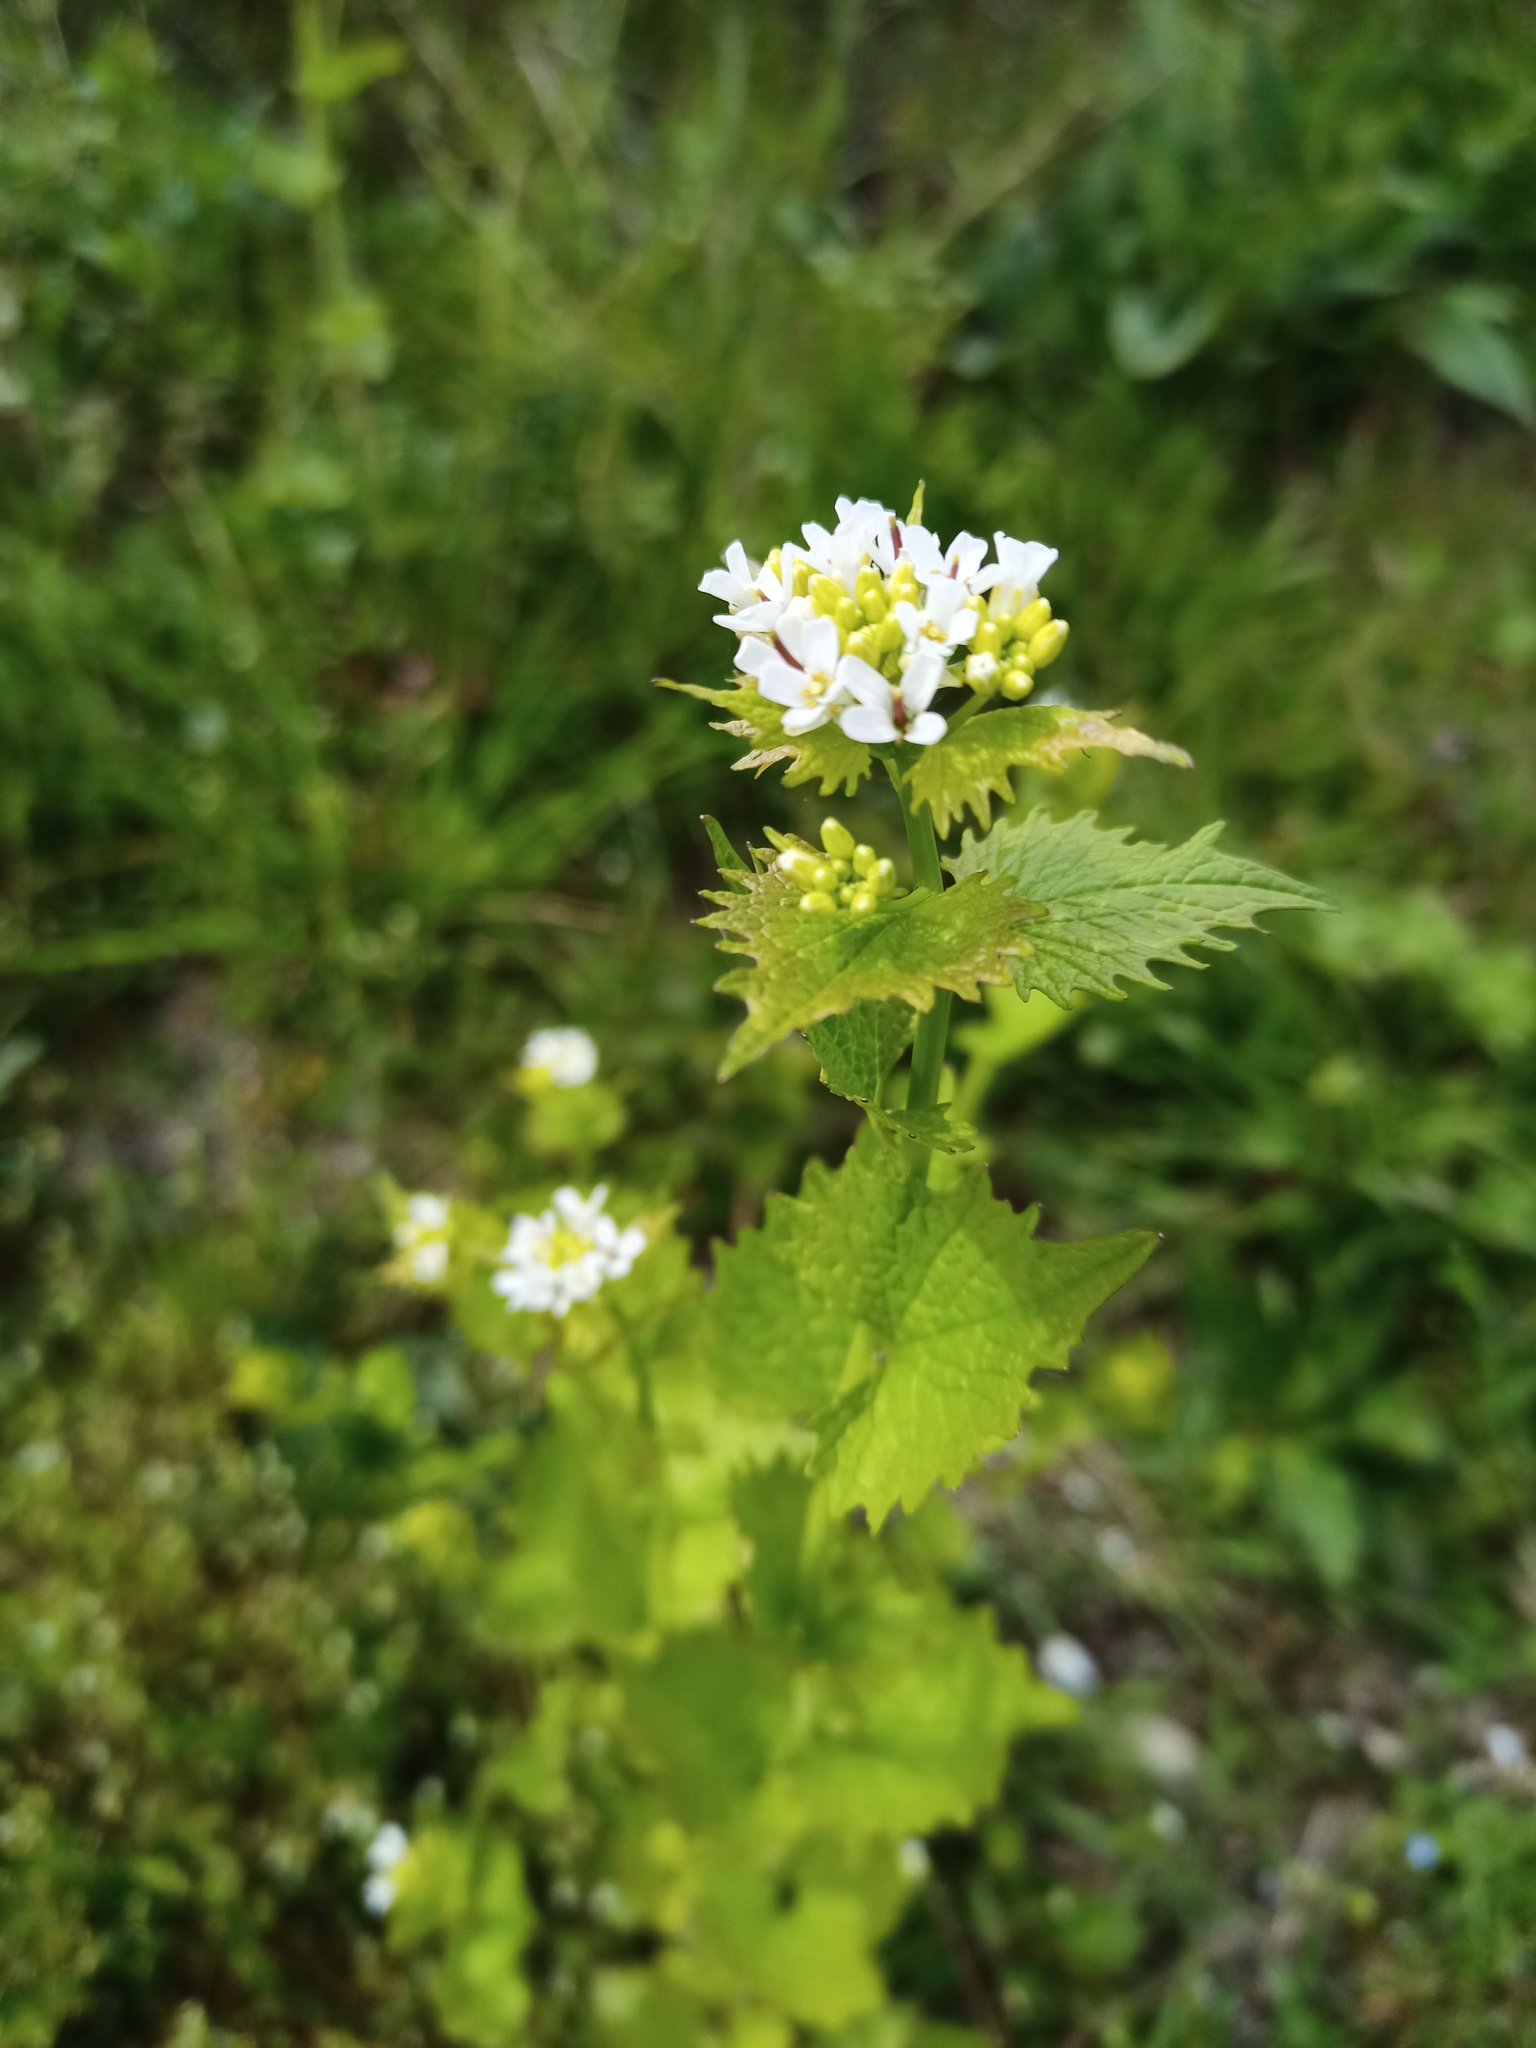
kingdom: Plantae
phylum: Tracheophyta
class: Magnoliopsida
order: Brassicales
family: Brassicaceae
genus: Alliaria
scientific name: Alliaria petiolata
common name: Garlic mustard
